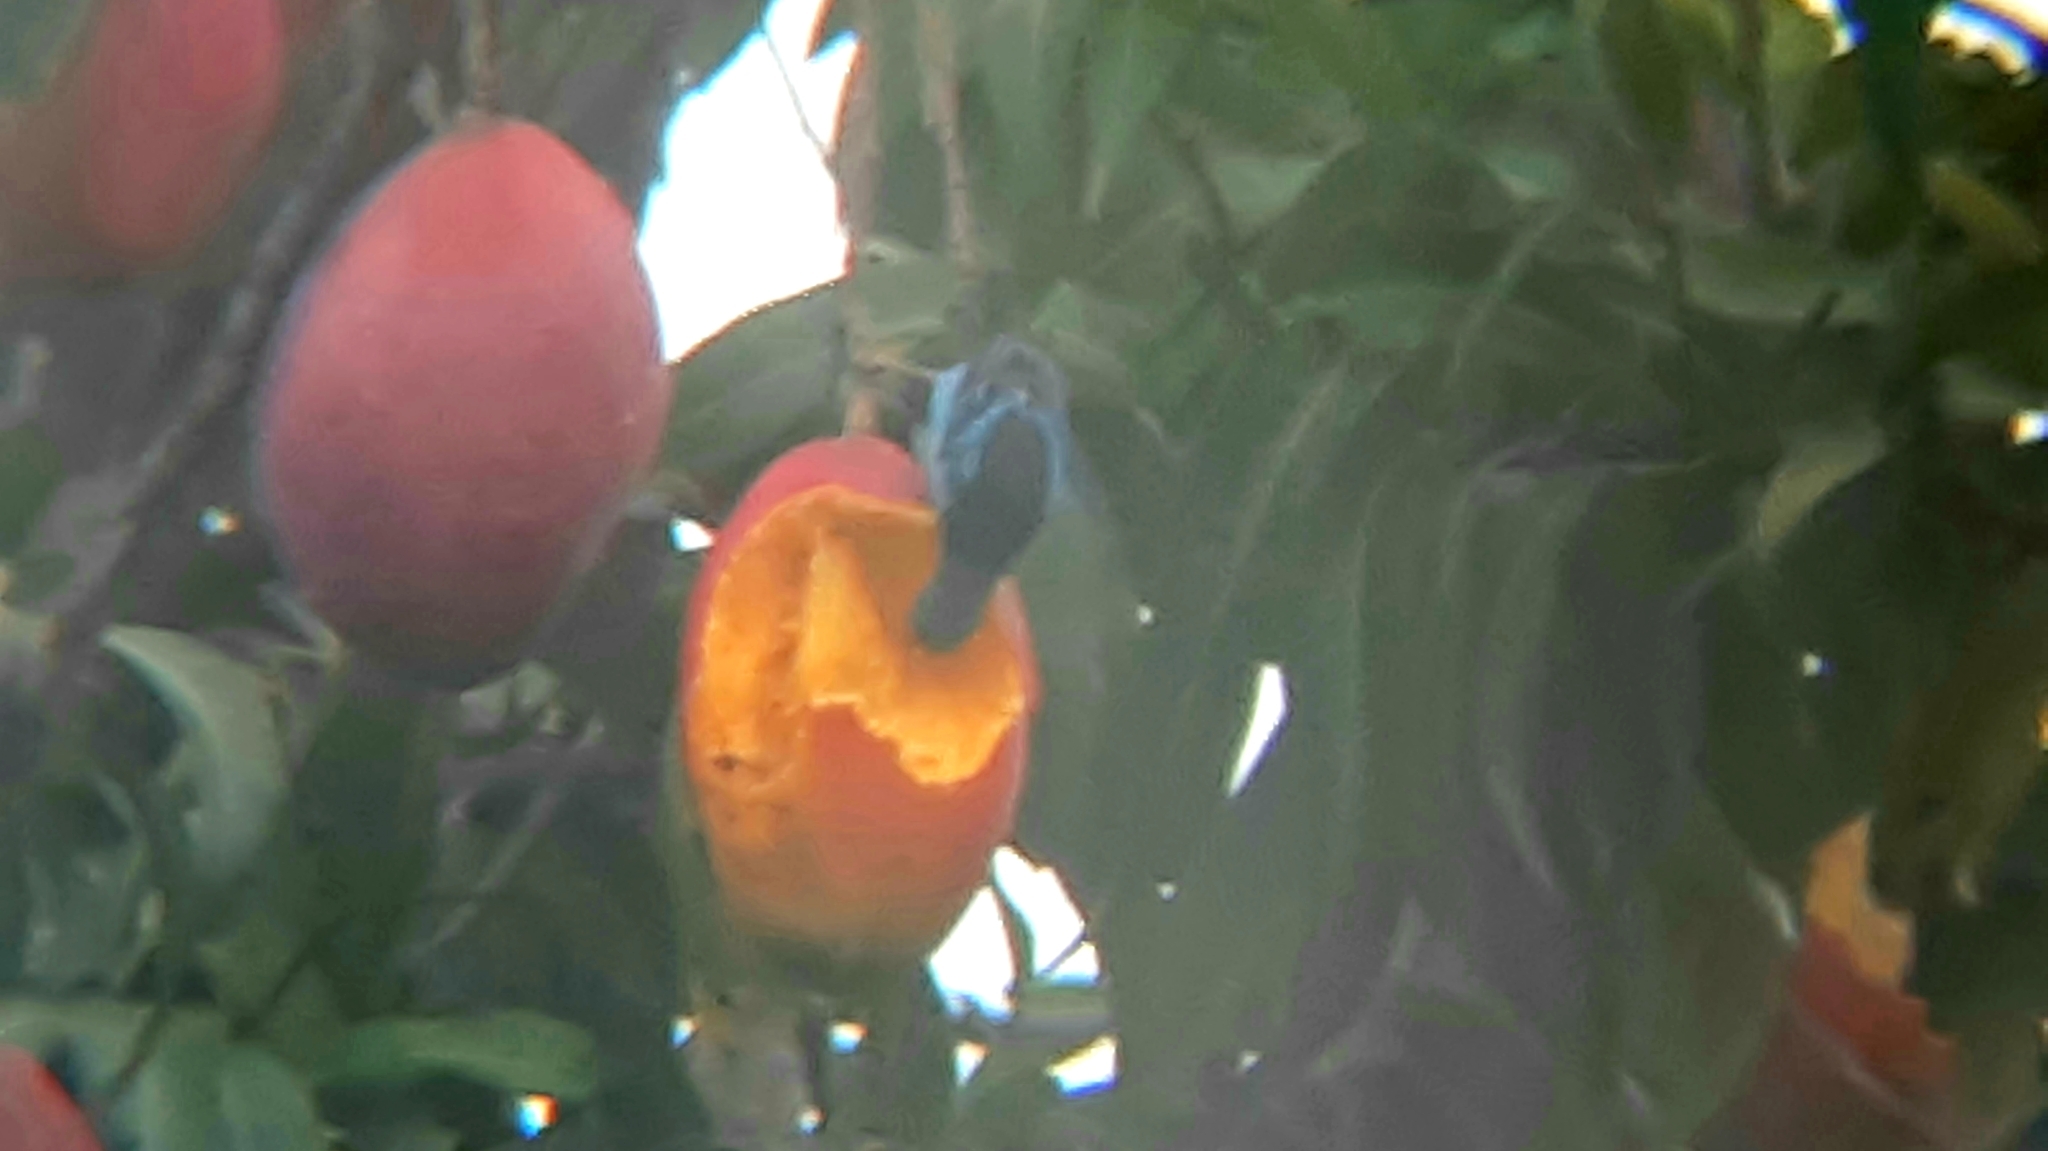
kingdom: Animalia
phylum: Chordata
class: Aves
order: Passeriformes
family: Thraupidae
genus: Dacnis
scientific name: Dacnis cayana
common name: Blue dacnis
